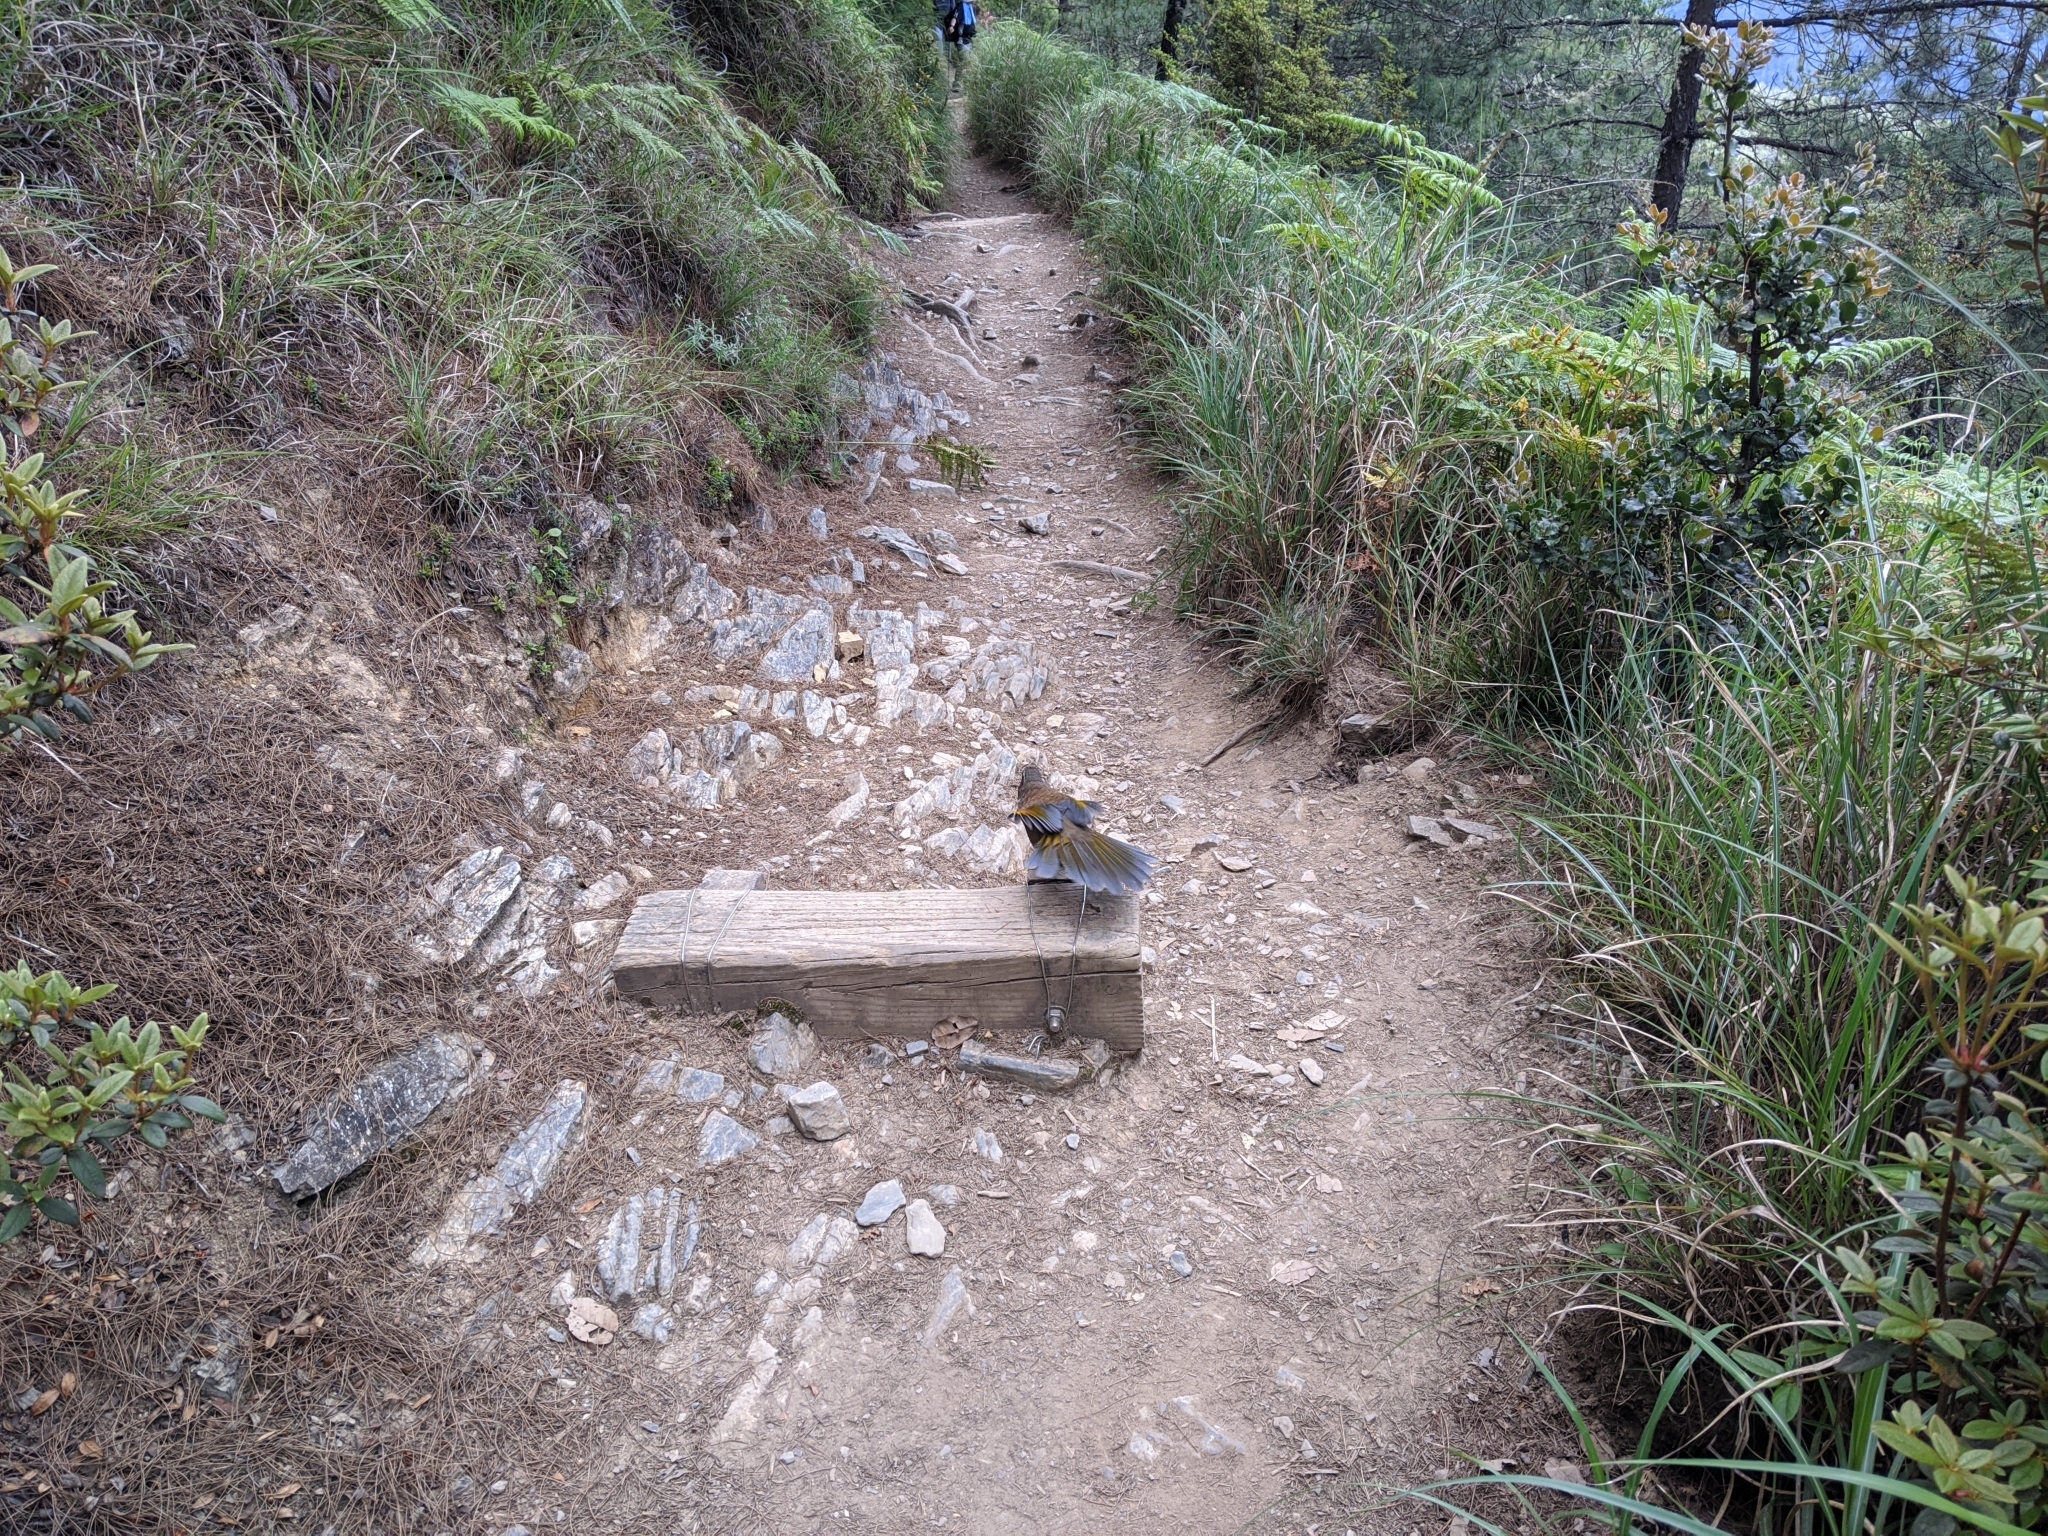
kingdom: Animalia
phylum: Chordata
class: Aves
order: Passeriformes
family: Leiothrichidae
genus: Trochalopteron
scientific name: Trochalopteron morrisonianum
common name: White-whiskered laughingthrush
